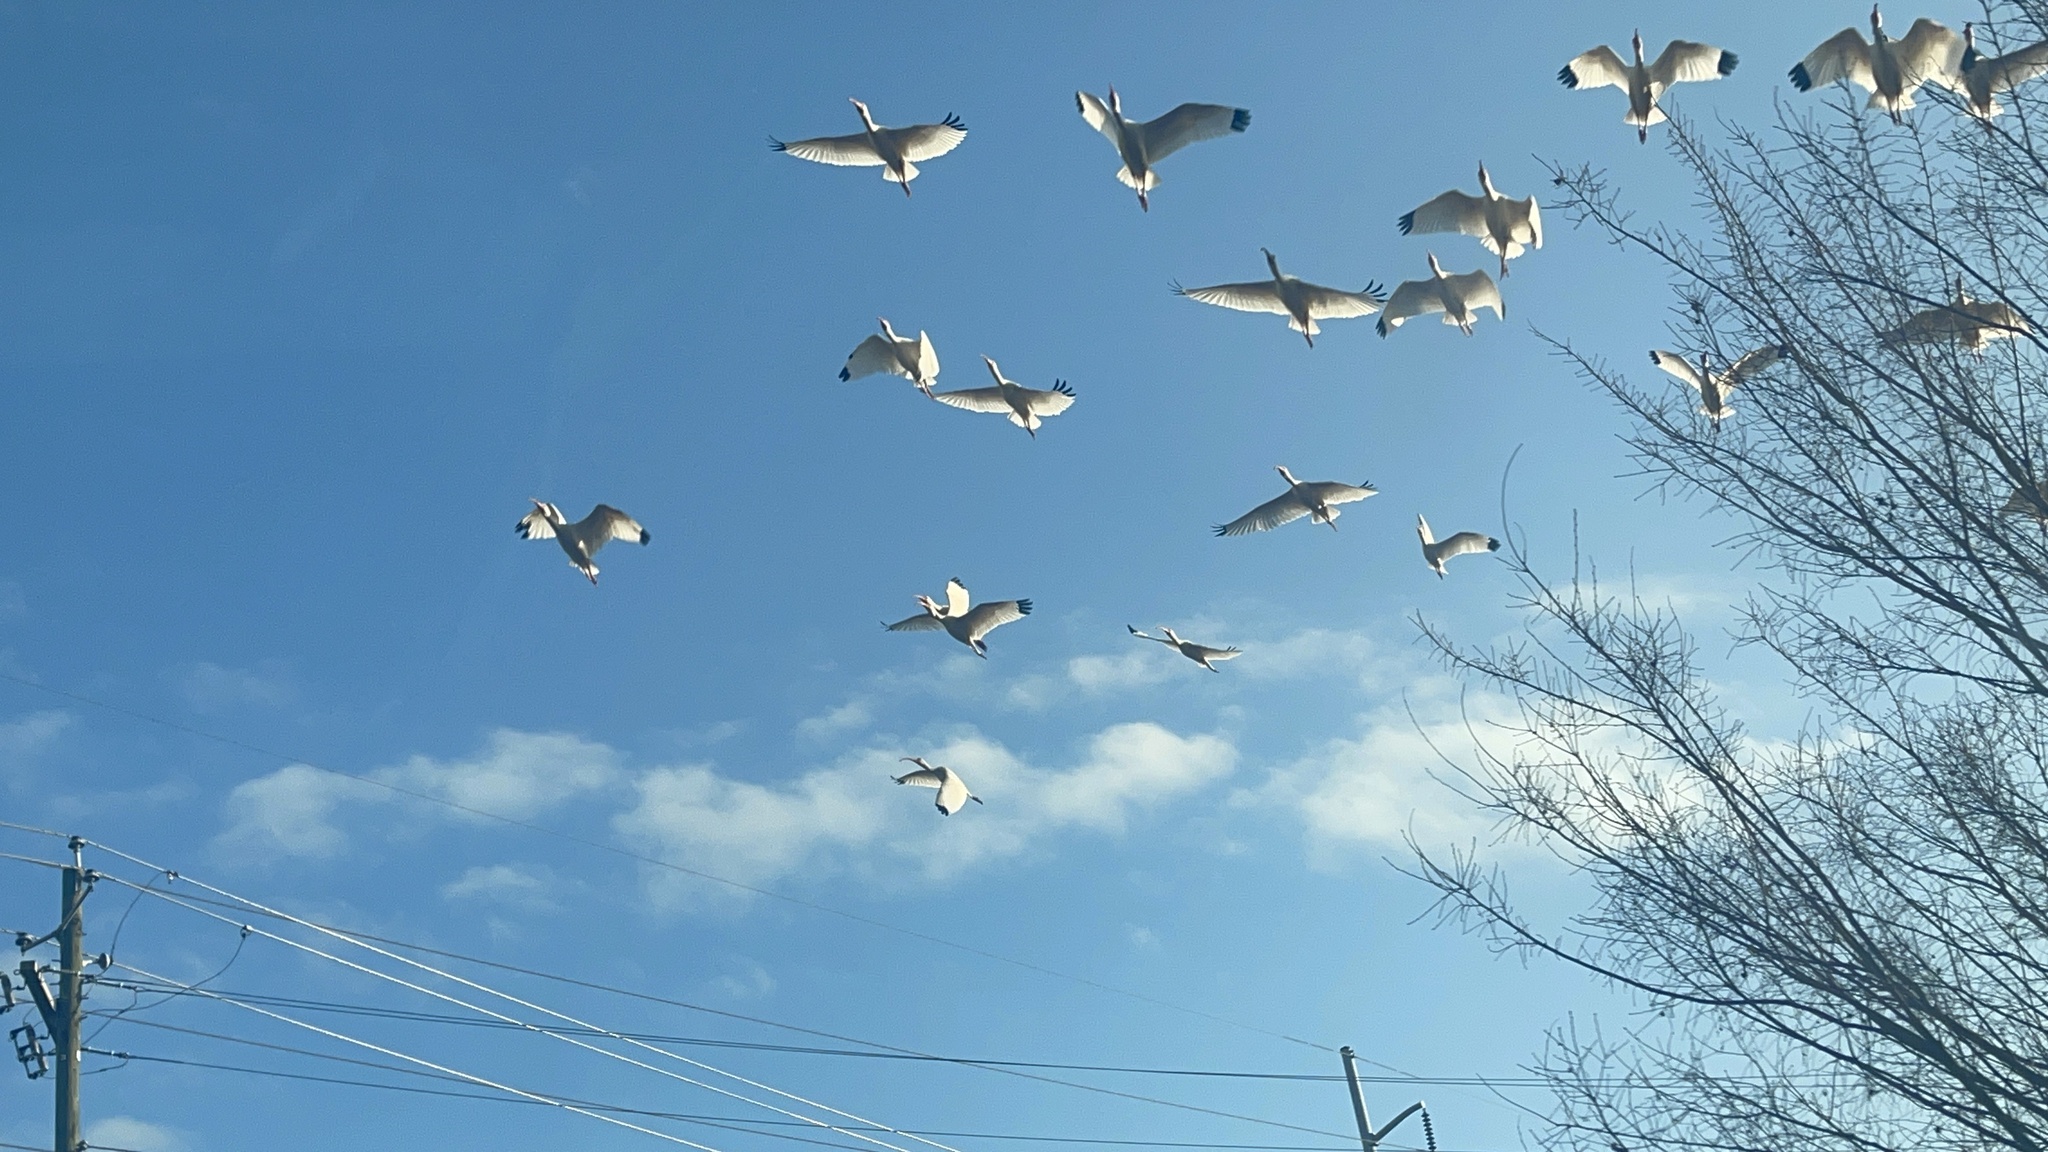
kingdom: Animalia
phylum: Chordata
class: Aves
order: Pelecaniformes
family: Threskiornithidae
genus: Eudocimus
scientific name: Eudocimus albus
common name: White ibis
